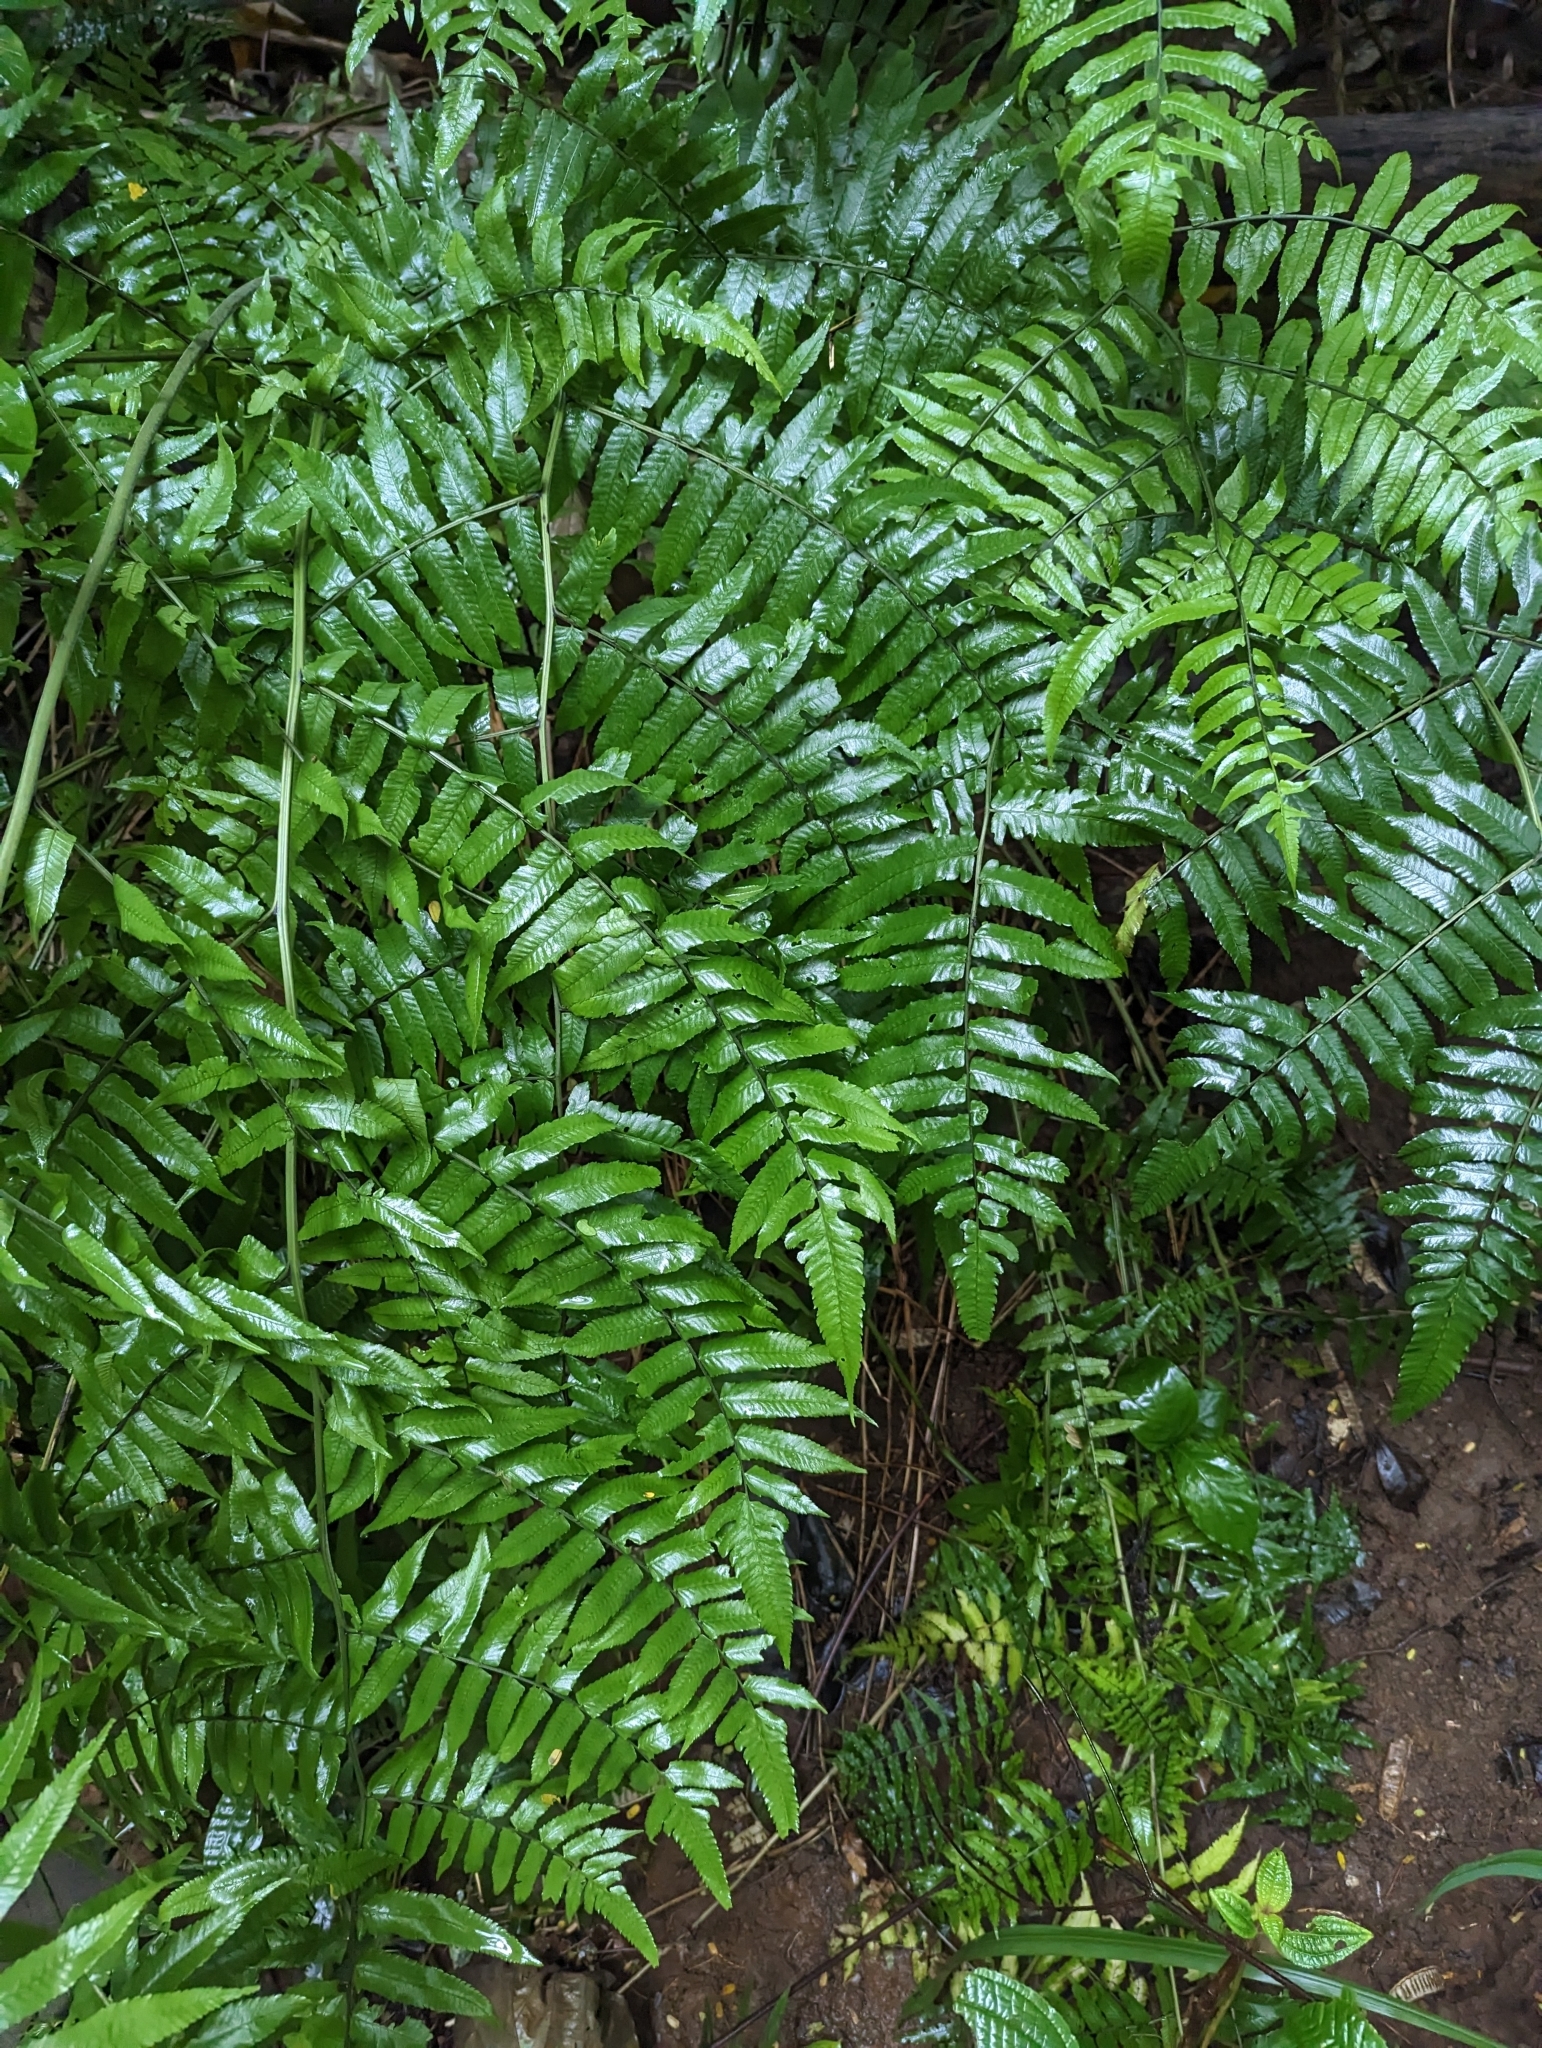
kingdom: Plantae
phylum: Tracheophyta
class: Polypodiopsida
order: Polypodiales
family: Athyriaceae
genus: Diplazium
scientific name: Diplazium esculentum
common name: Vegetable fern
